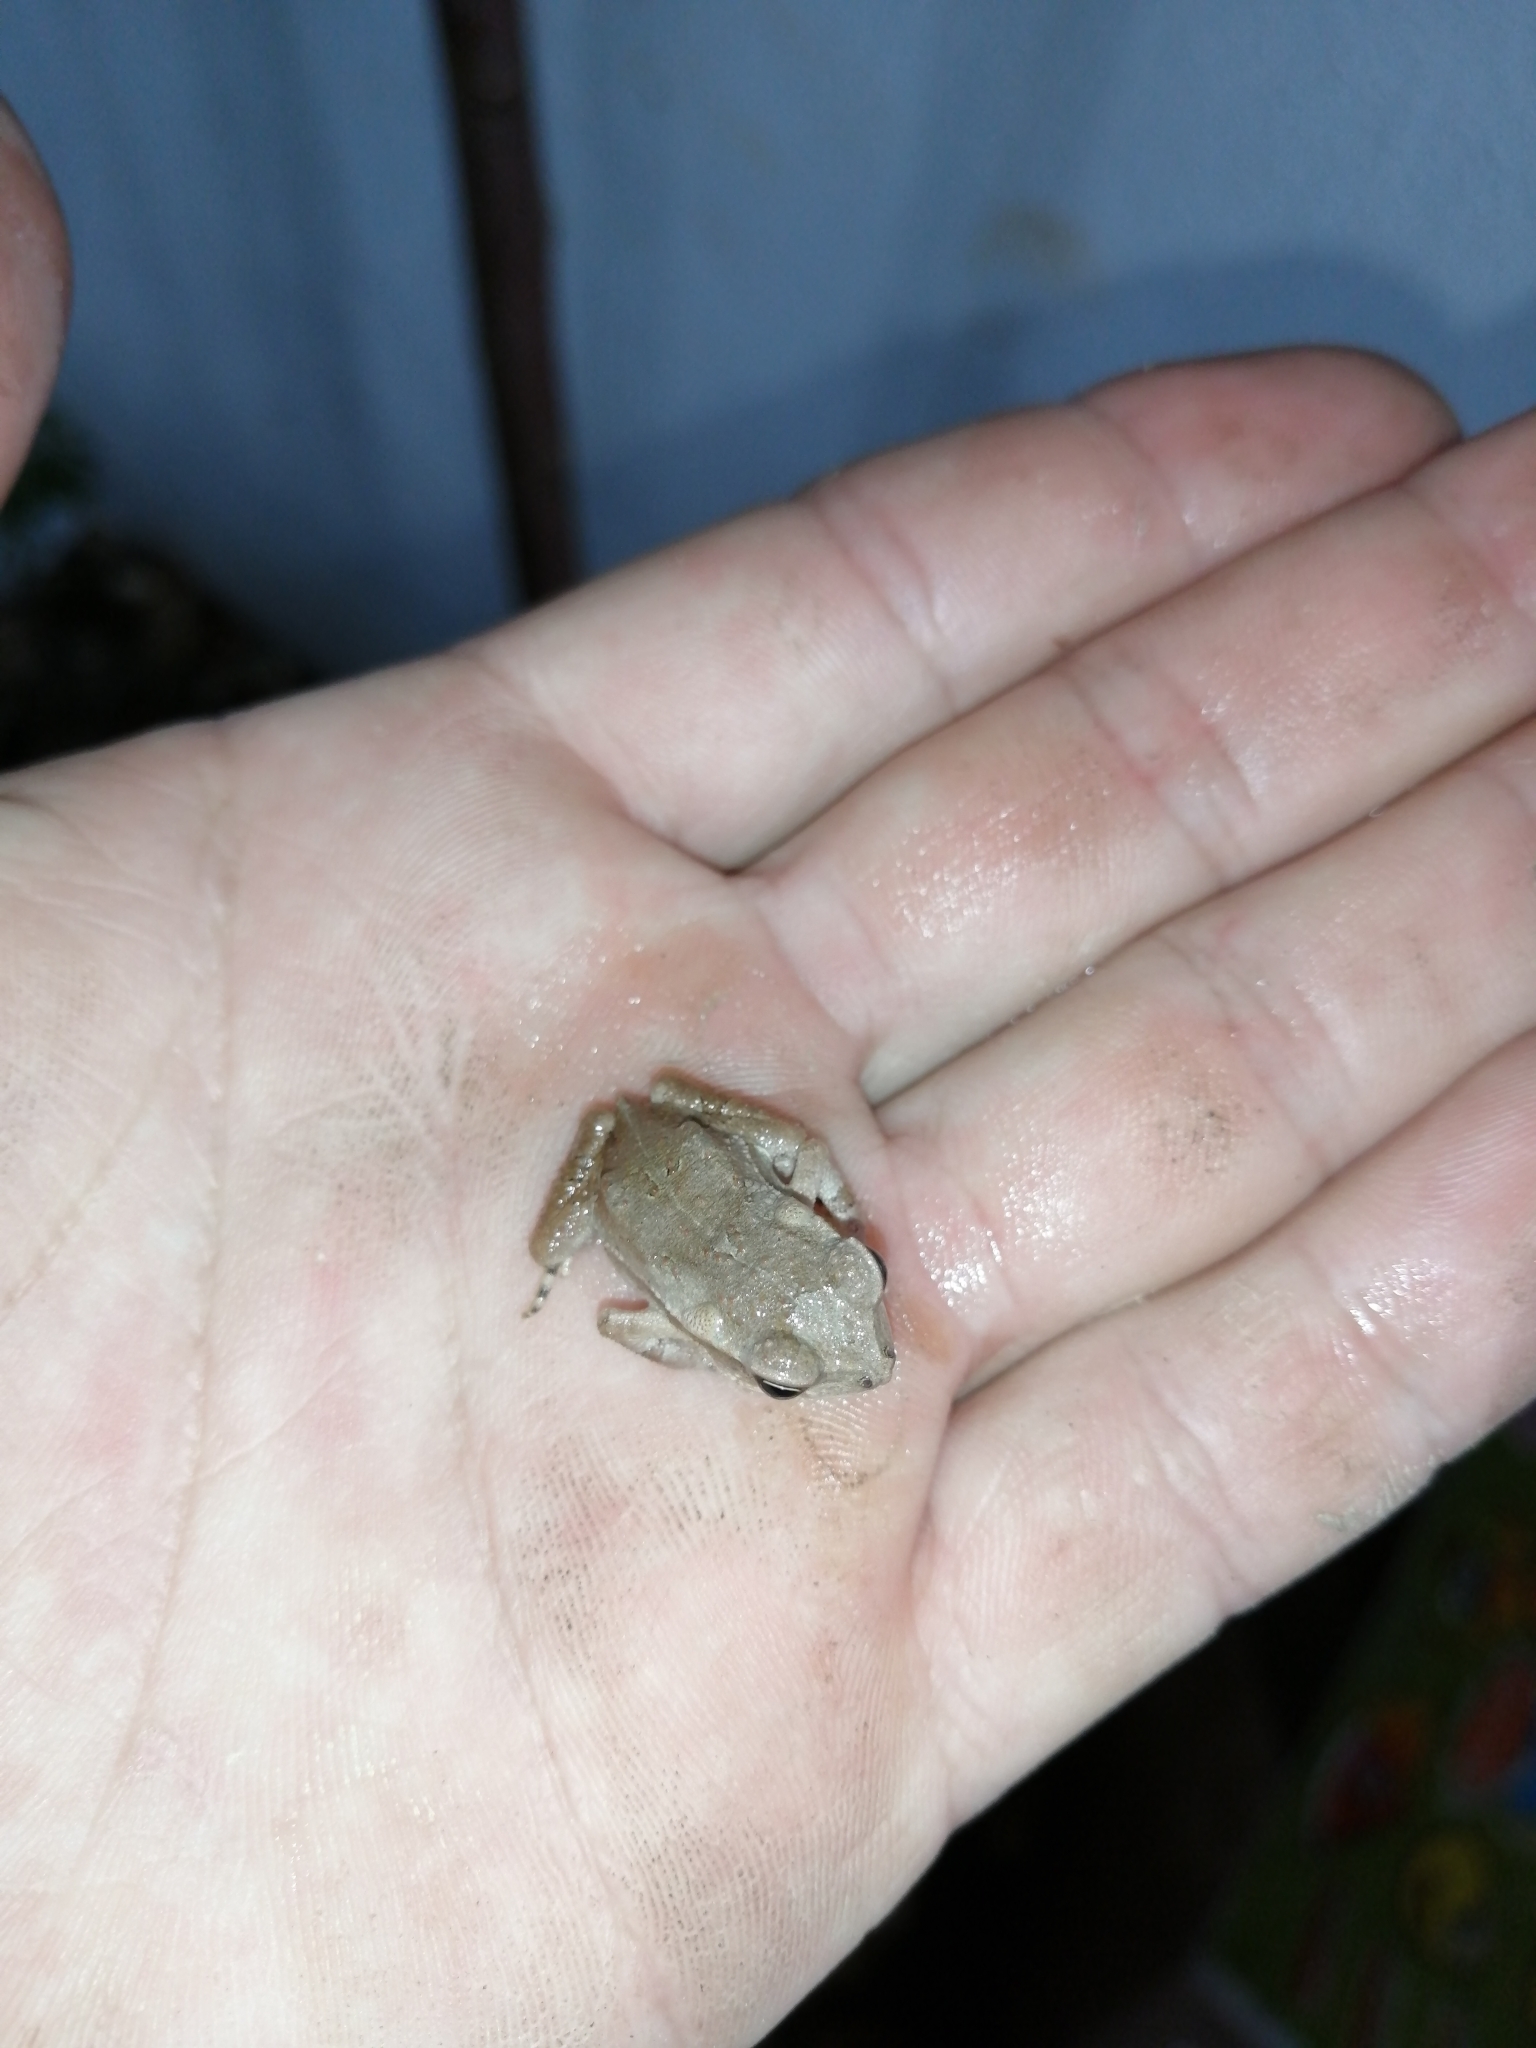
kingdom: Animalia
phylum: Chordata
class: Amphibia
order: Anura
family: Bufonidae
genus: Incilius
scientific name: Incilius valliceps
